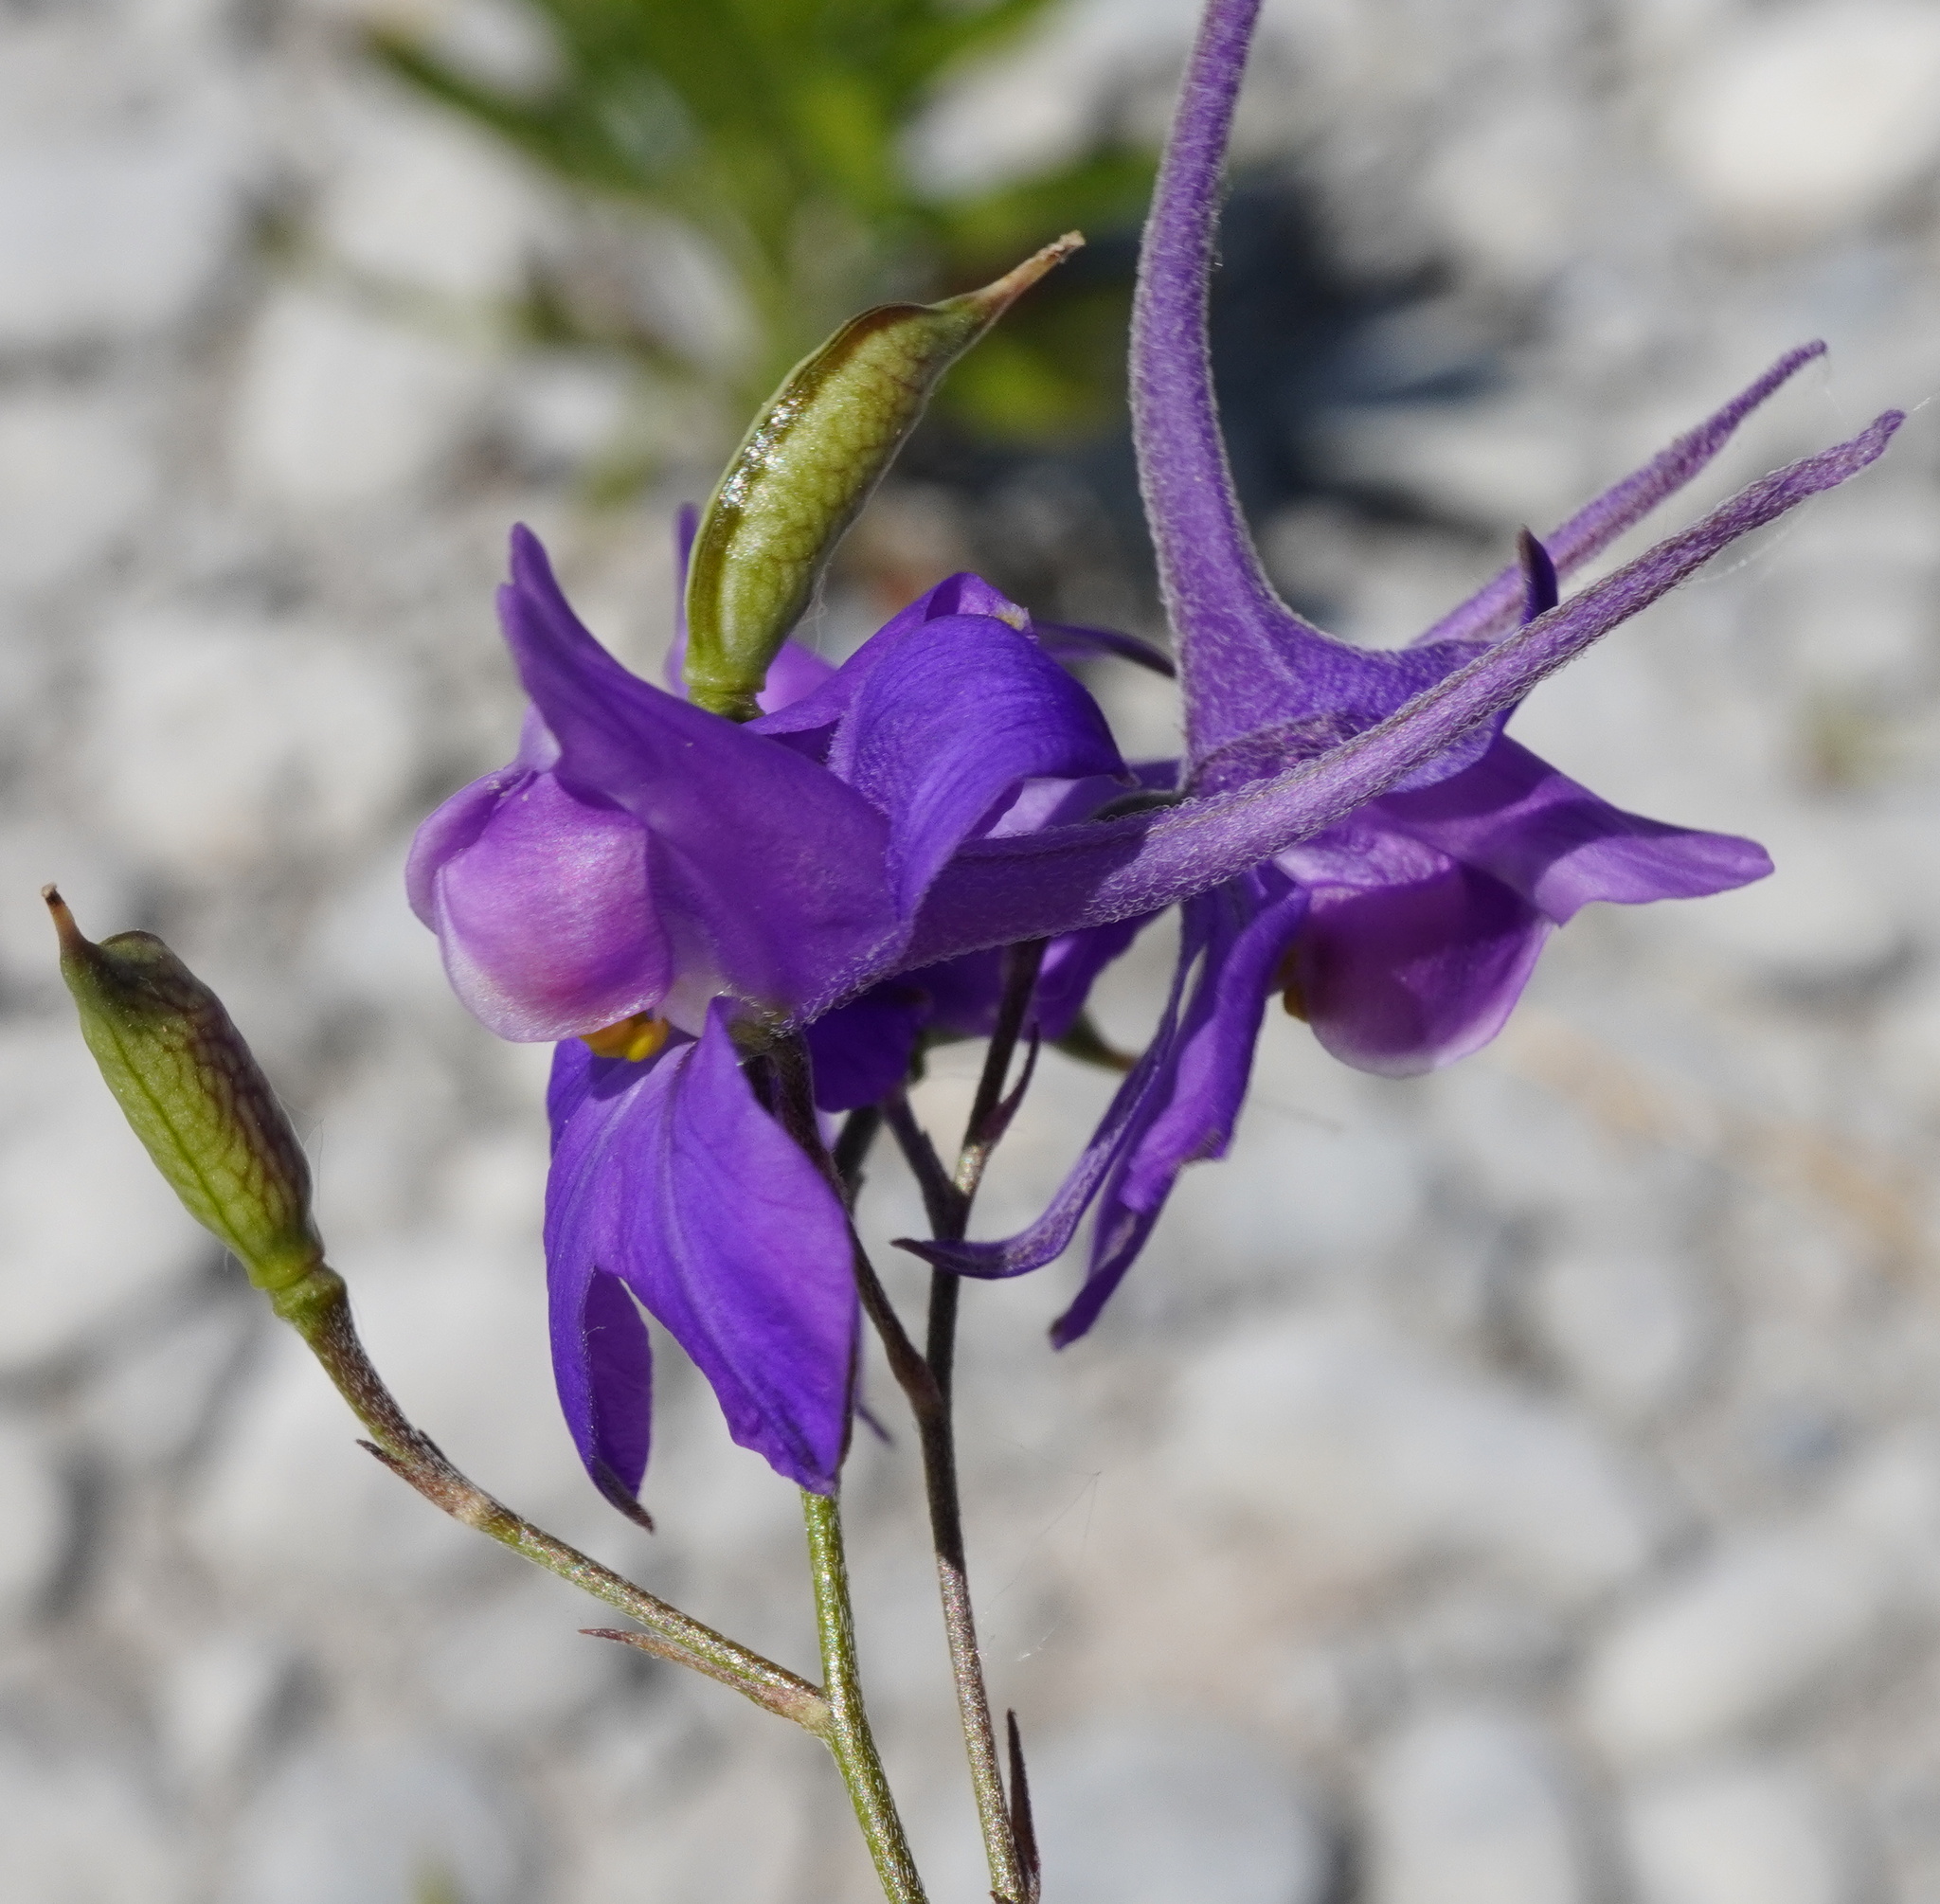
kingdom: Plantae
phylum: Tracheophyta
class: Magnoliopsida
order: Ranunculales
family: Ranunculaceae
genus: Delphinium
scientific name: Delphinium consolida
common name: Branching larkspur
